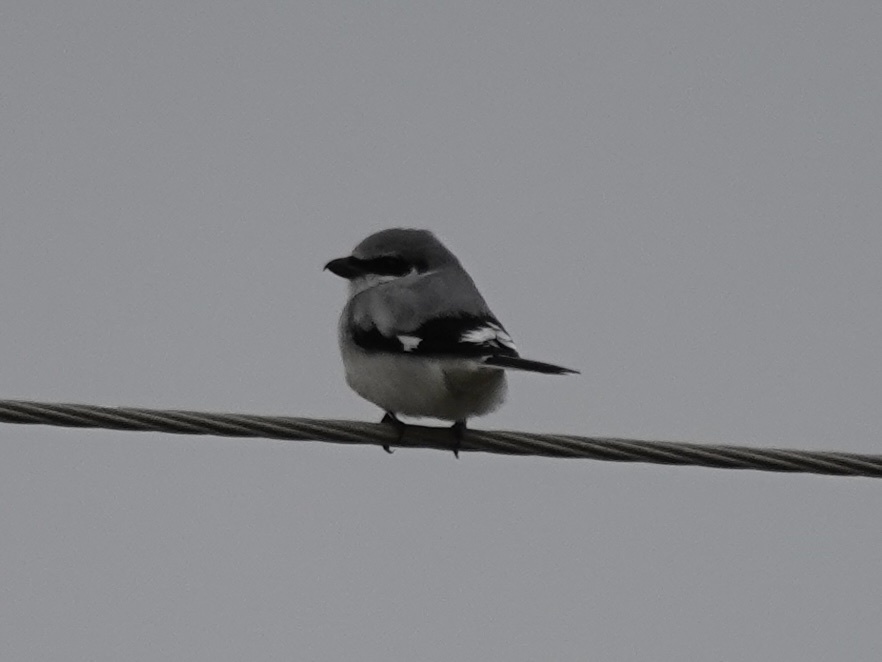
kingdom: Animalia
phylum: Chordata
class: Aves
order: Passeriformes
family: Laniidae
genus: Lanius
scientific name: Lanius ludovicianus
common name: Loggerhead shrike
